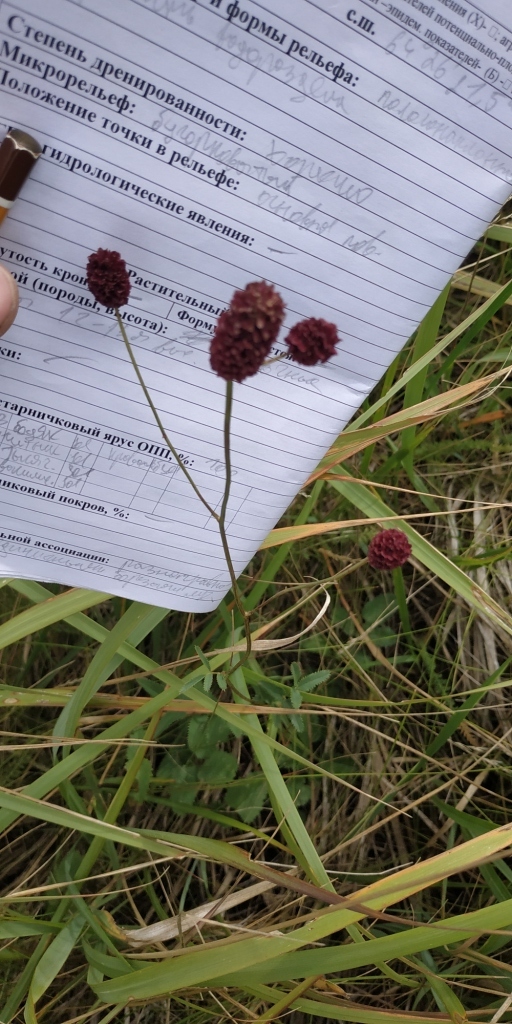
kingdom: Plantae
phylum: Tracheophyta
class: Magnoliopsida
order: Rosales
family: Rosaceae
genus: Sanguisorba
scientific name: Sanguisorba officinalis
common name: Great burnet
